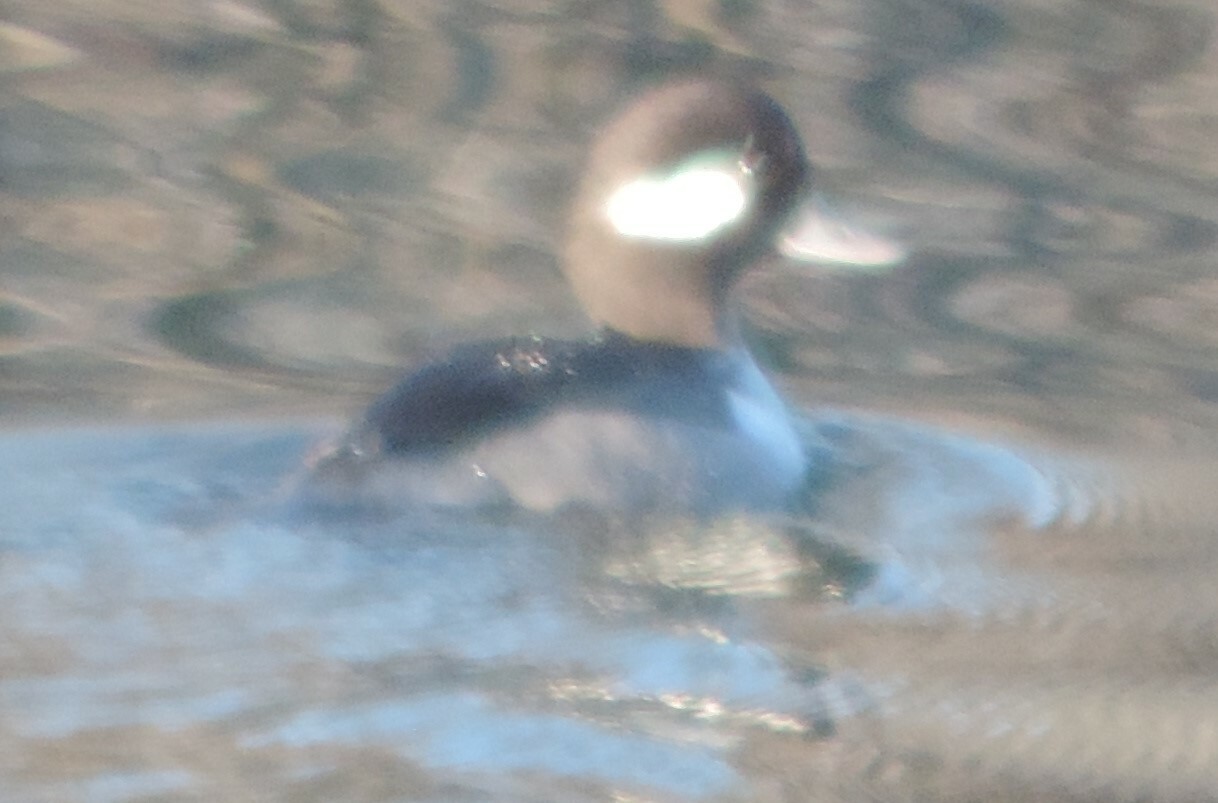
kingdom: Animalia
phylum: Chordata
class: Aves
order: Anseriformes
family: Anatidae
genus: Bucephala
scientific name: Bucephala albeola
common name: Bufflehead
